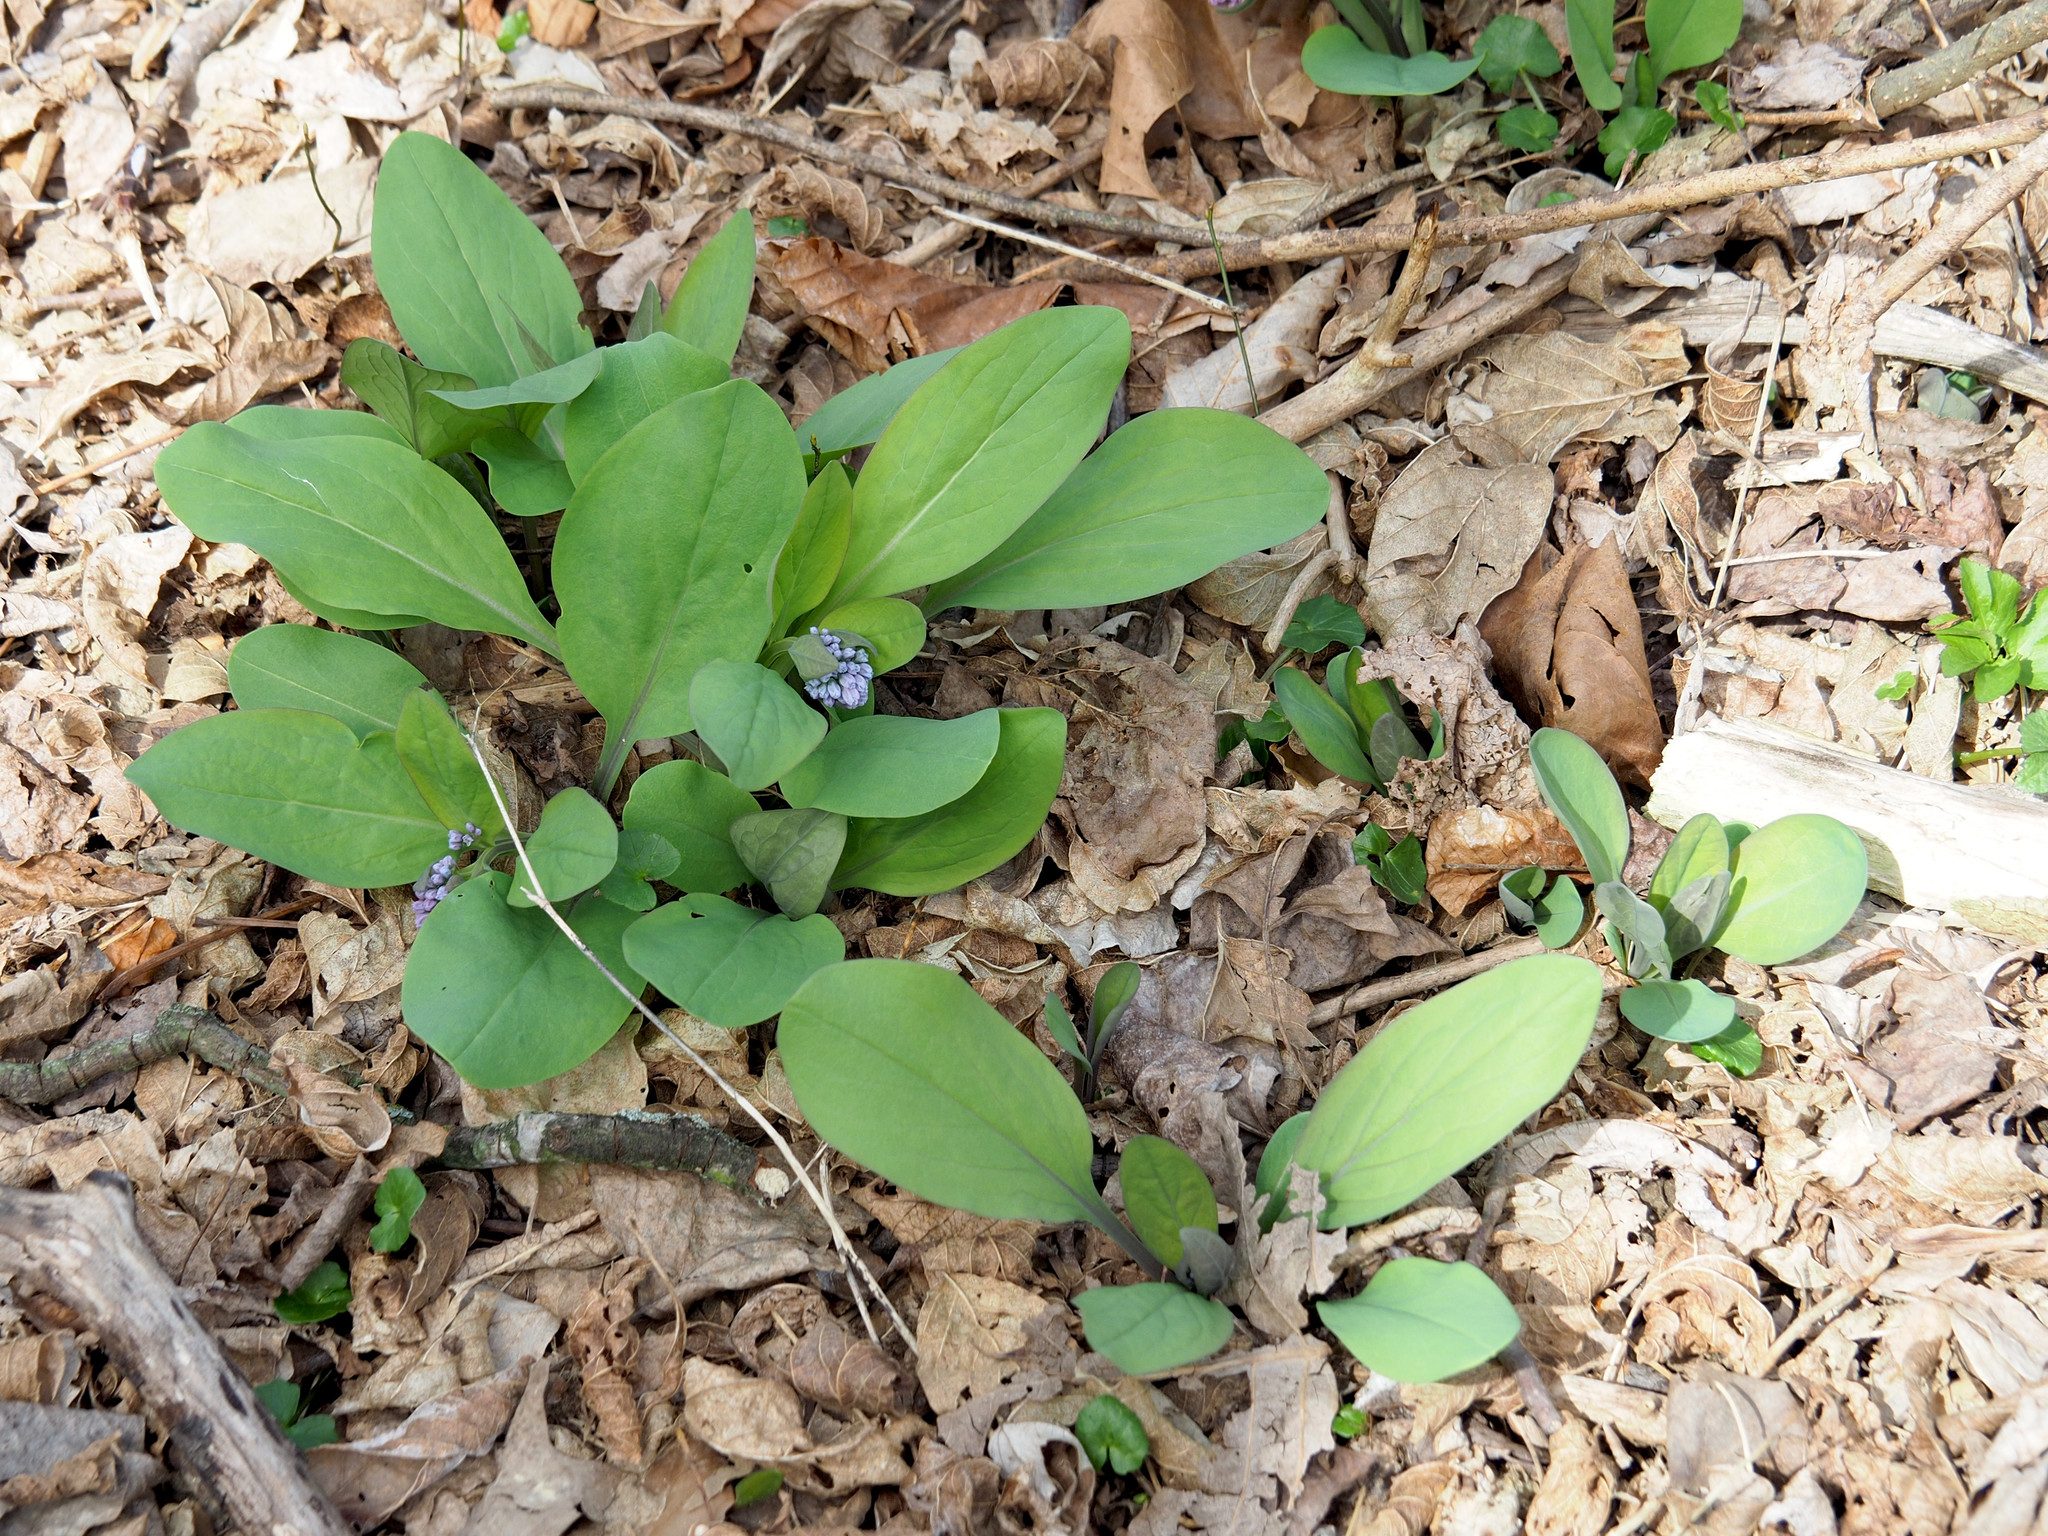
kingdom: Plantae
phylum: Tracheophyta
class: Magnoliopsida
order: Boraginales
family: Boraginaceae
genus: Mertensia
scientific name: Mertensia virginica
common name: Virginia bluebells
